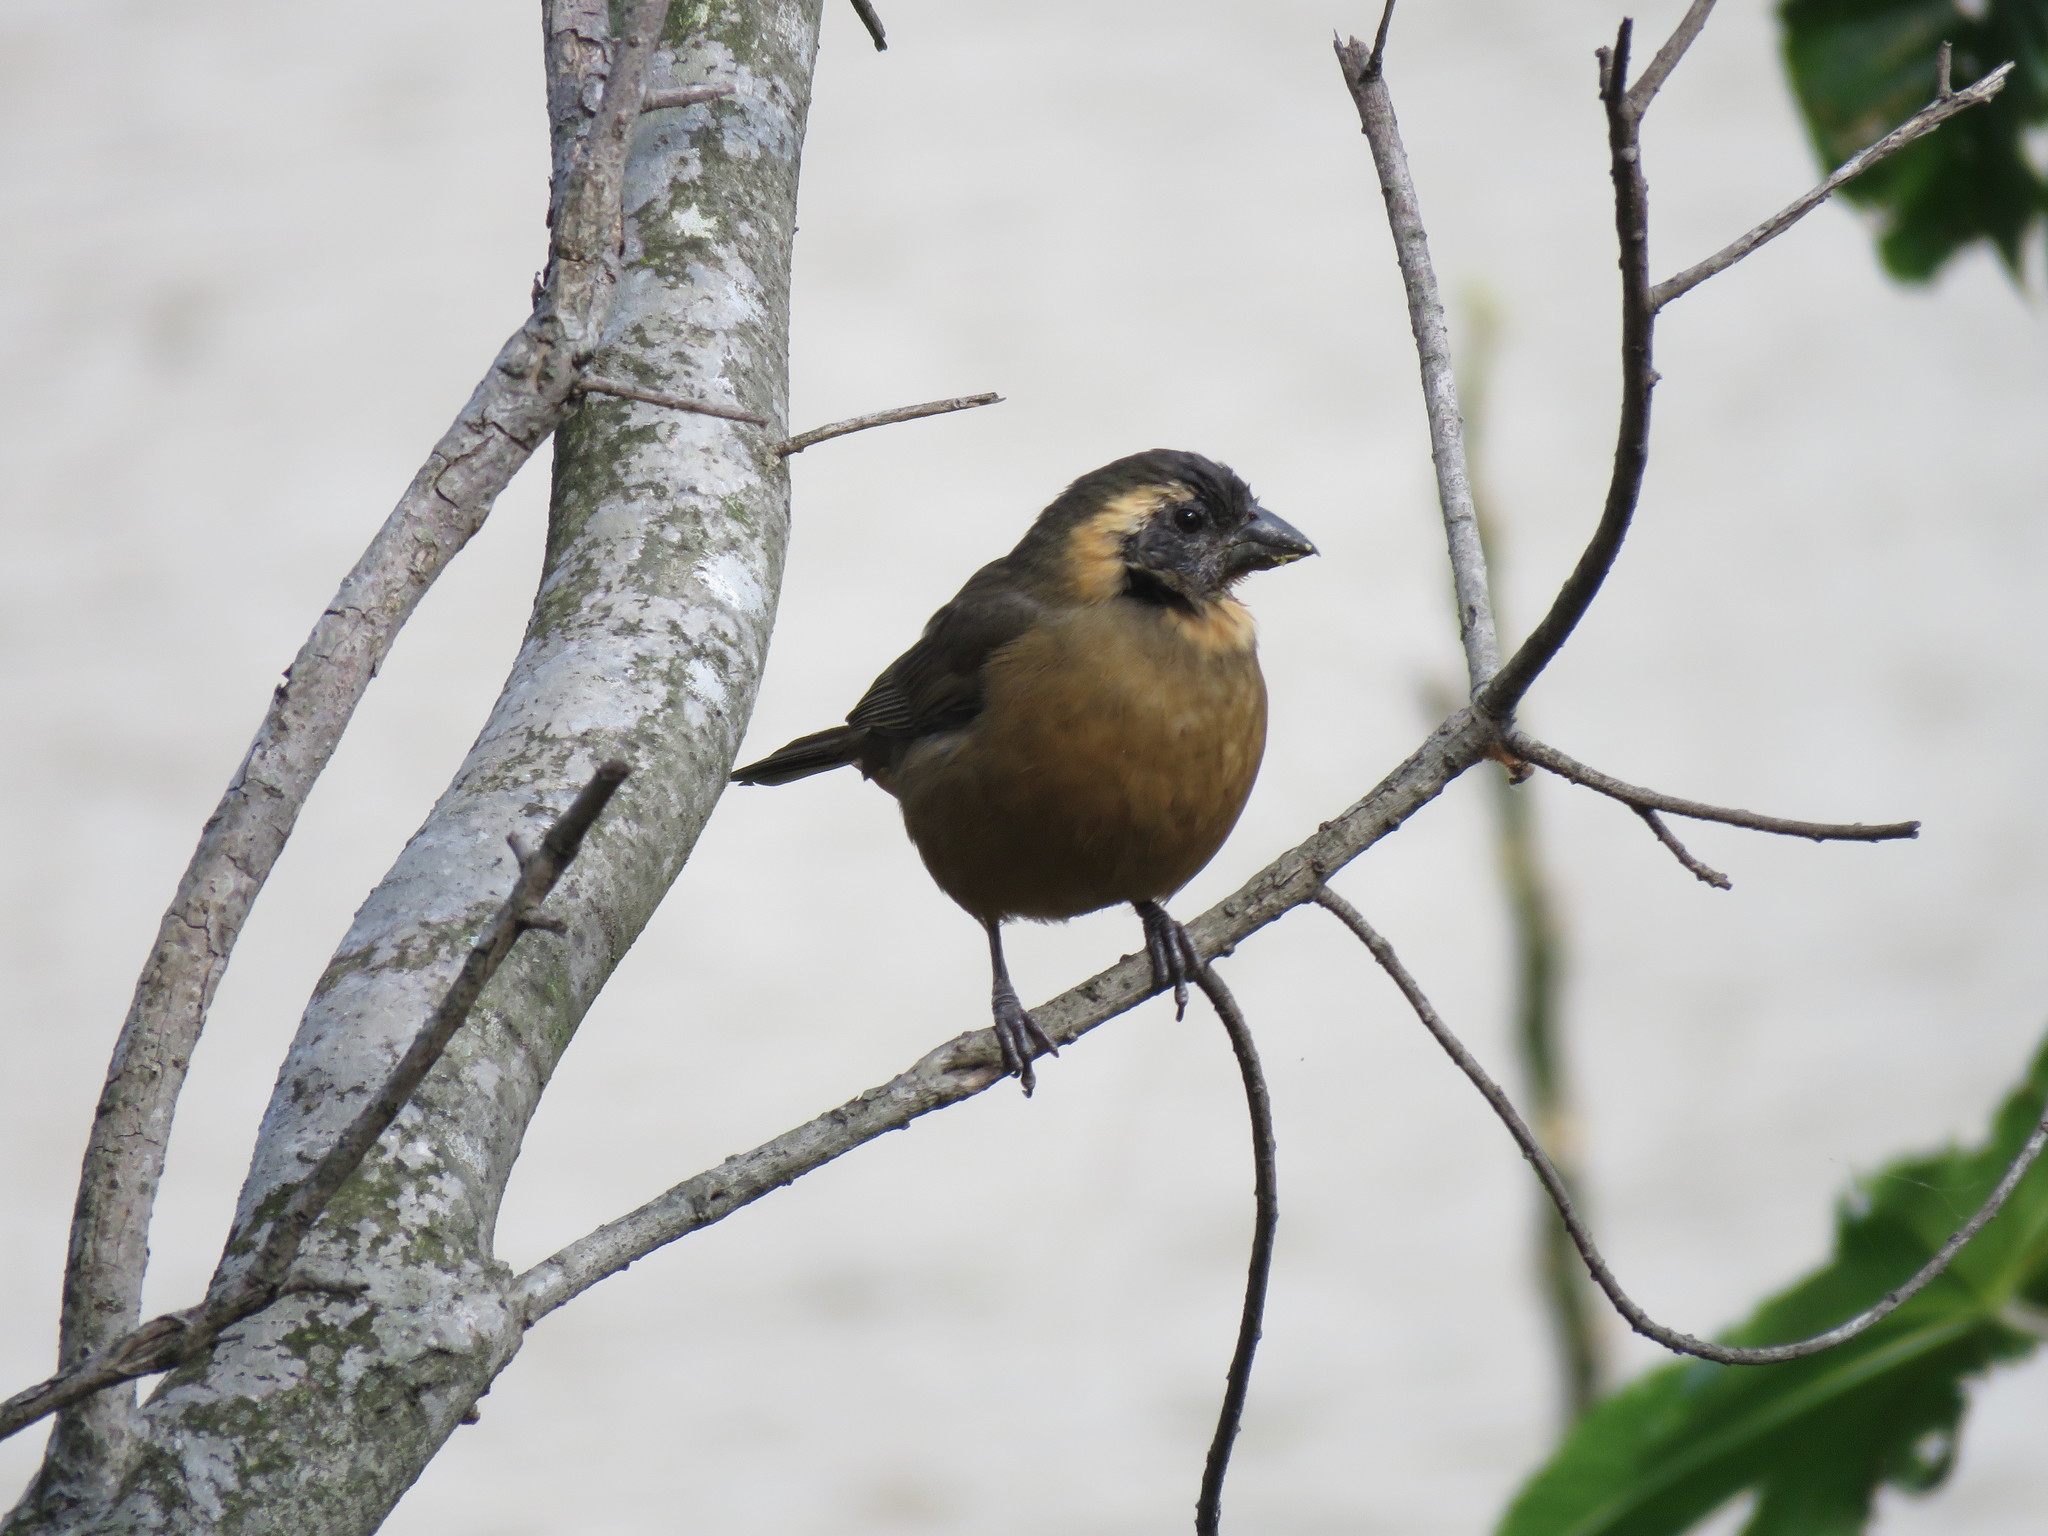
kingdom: Animalia
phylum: Chordata
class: Aves
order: Passeriformes
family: Thraupidae
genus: Saltator
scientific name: Saltator aurantiirostris
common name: Golden-billed saltator
